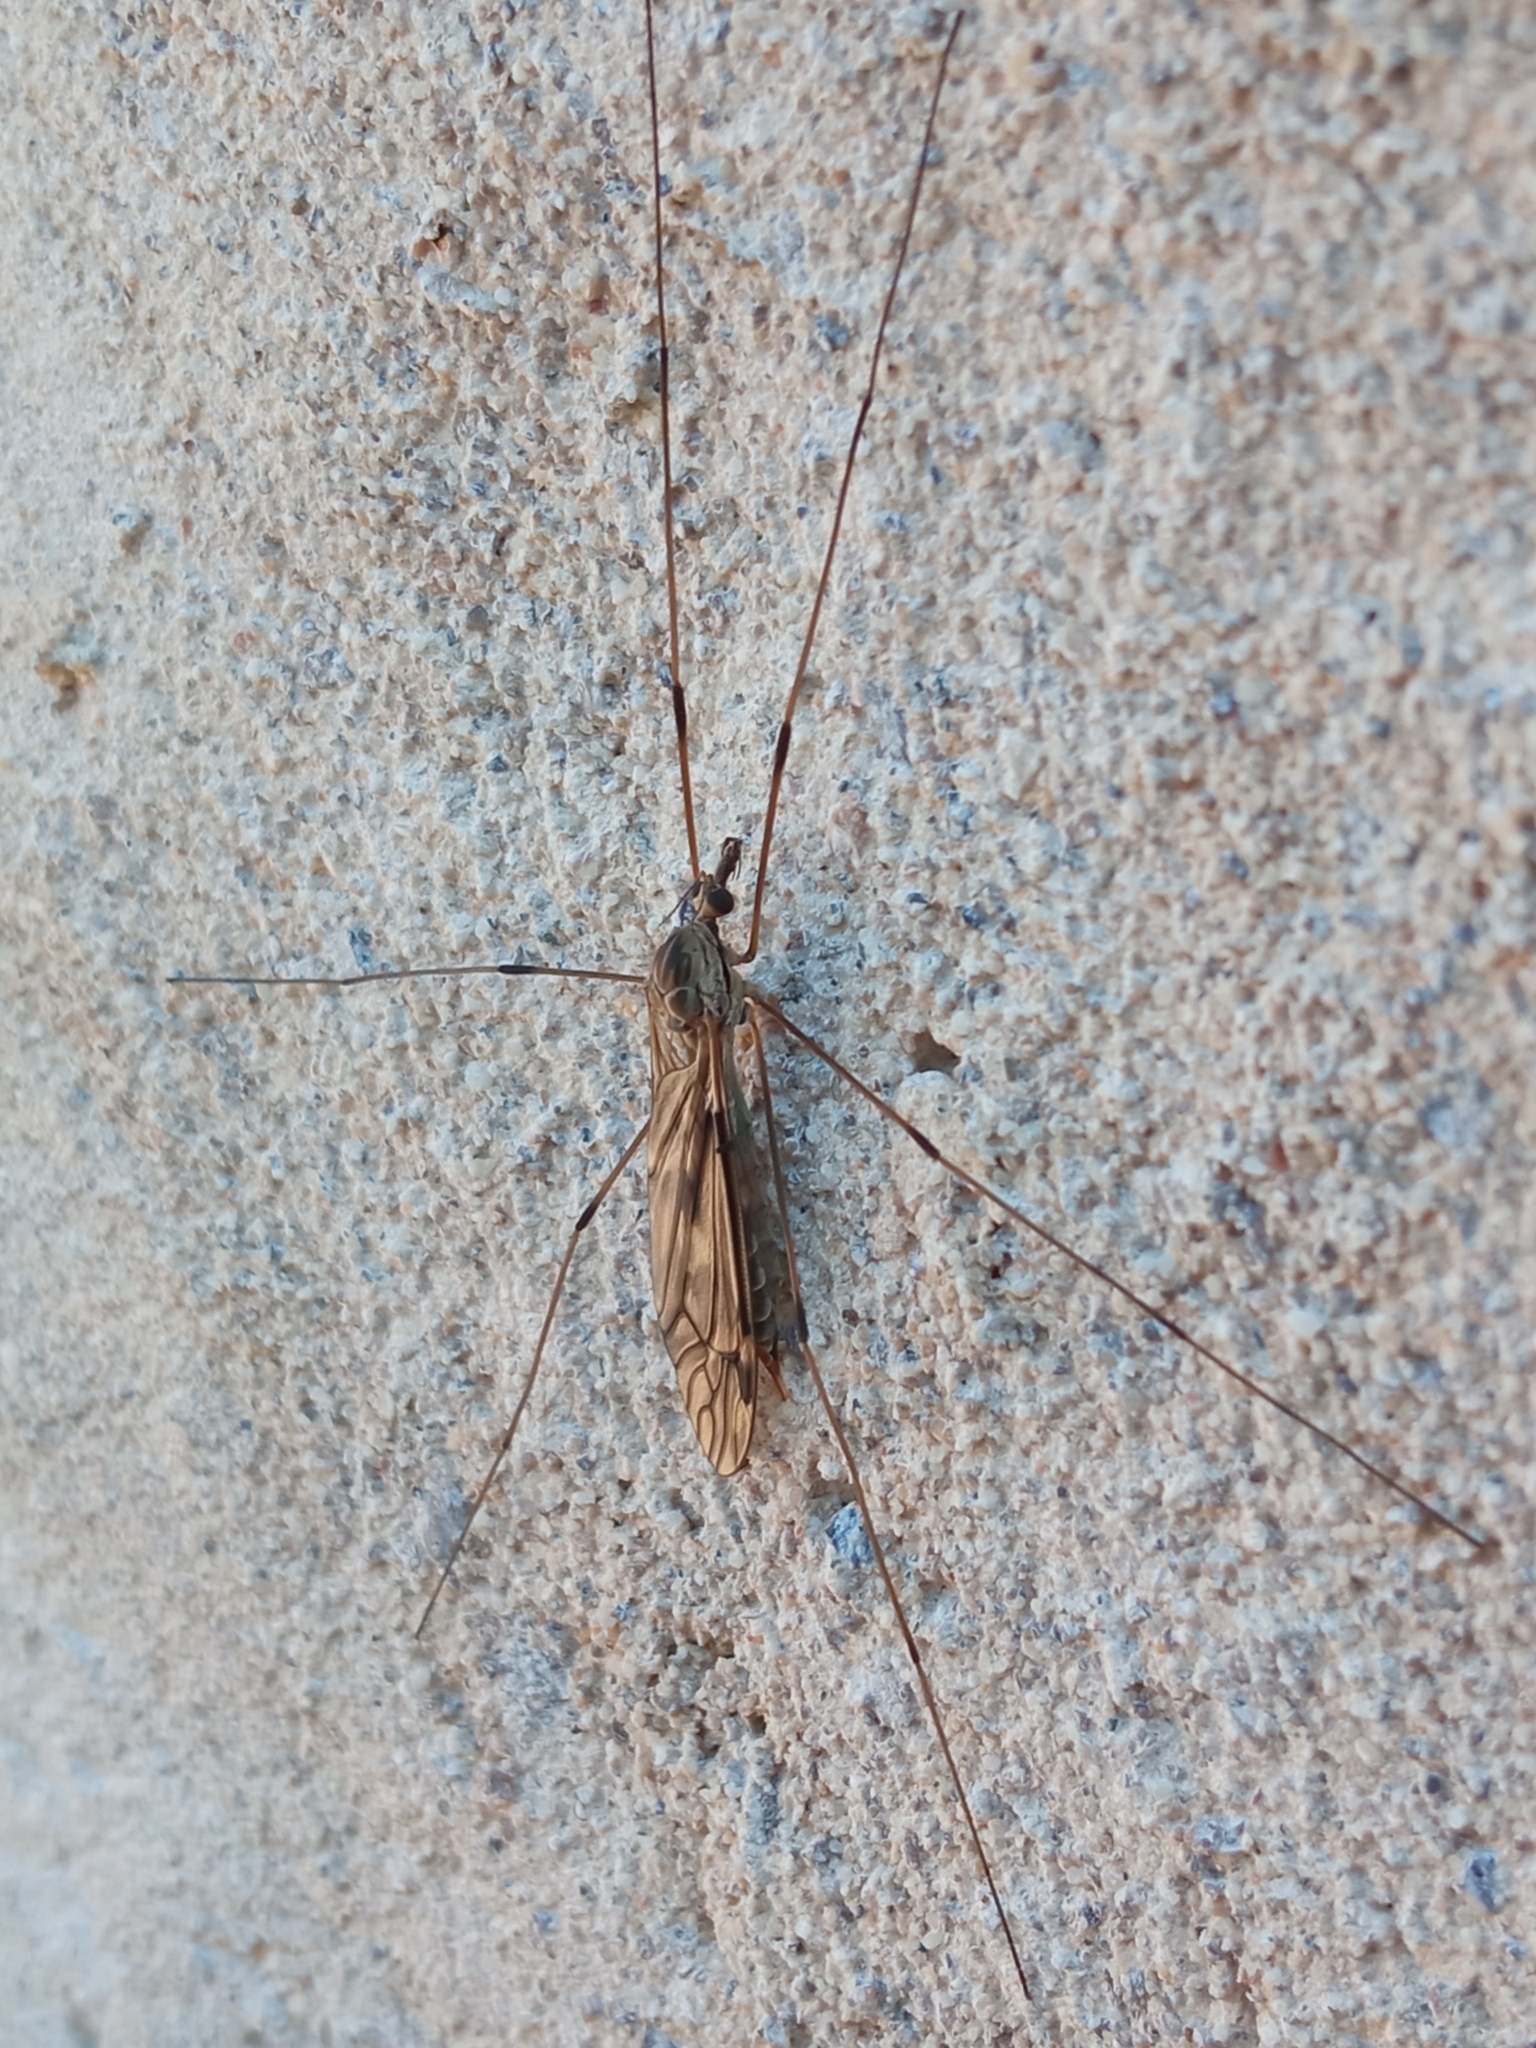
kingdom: Animalia
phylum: Arthropoda
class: Insecta
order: Diptera
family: Tipulidae
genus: Tipula
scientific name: Tipula rufina
